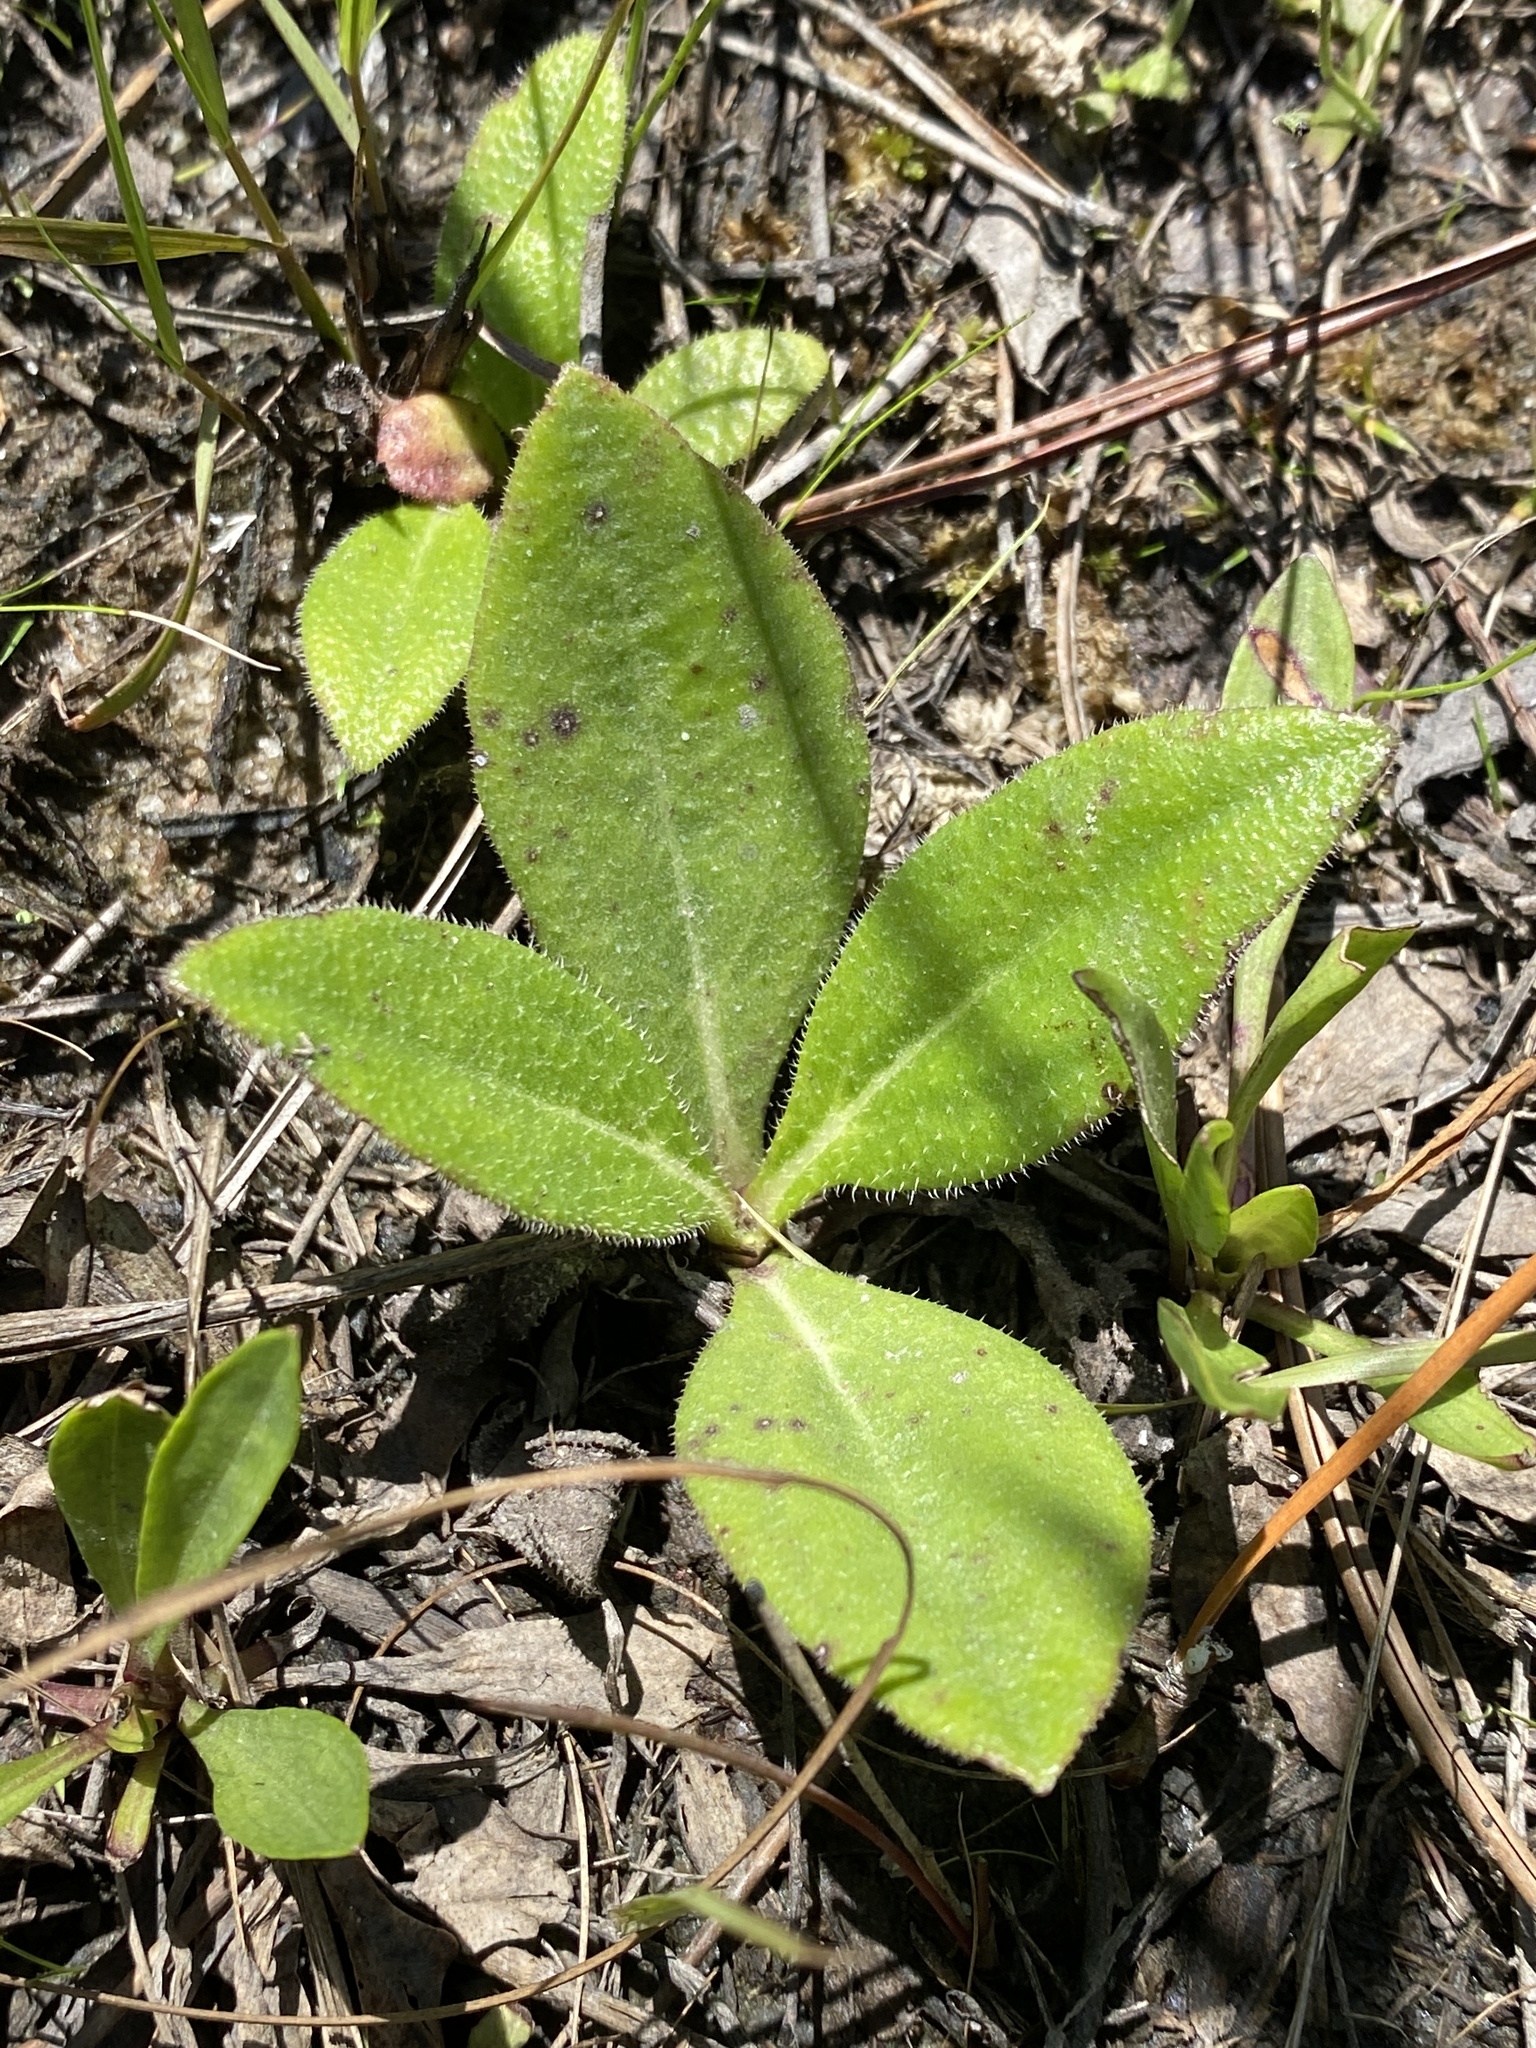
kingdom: Plantae
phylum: Tracheophyta
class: Magnoliopsida
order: Asterales
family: Asteraceae
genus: Helianthus
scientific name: Helianthus heterophyllus
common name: Wetland sunflower
